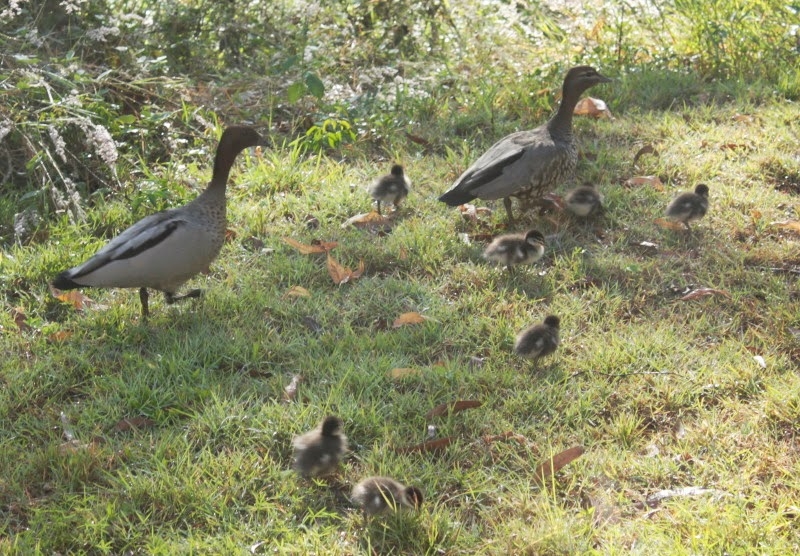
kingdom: Animalia
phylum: Chordata
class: Aves
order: Anseriformes
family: Anatidae
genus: Chenonetta
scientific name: Chenonetta jubata
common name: Maned duck
